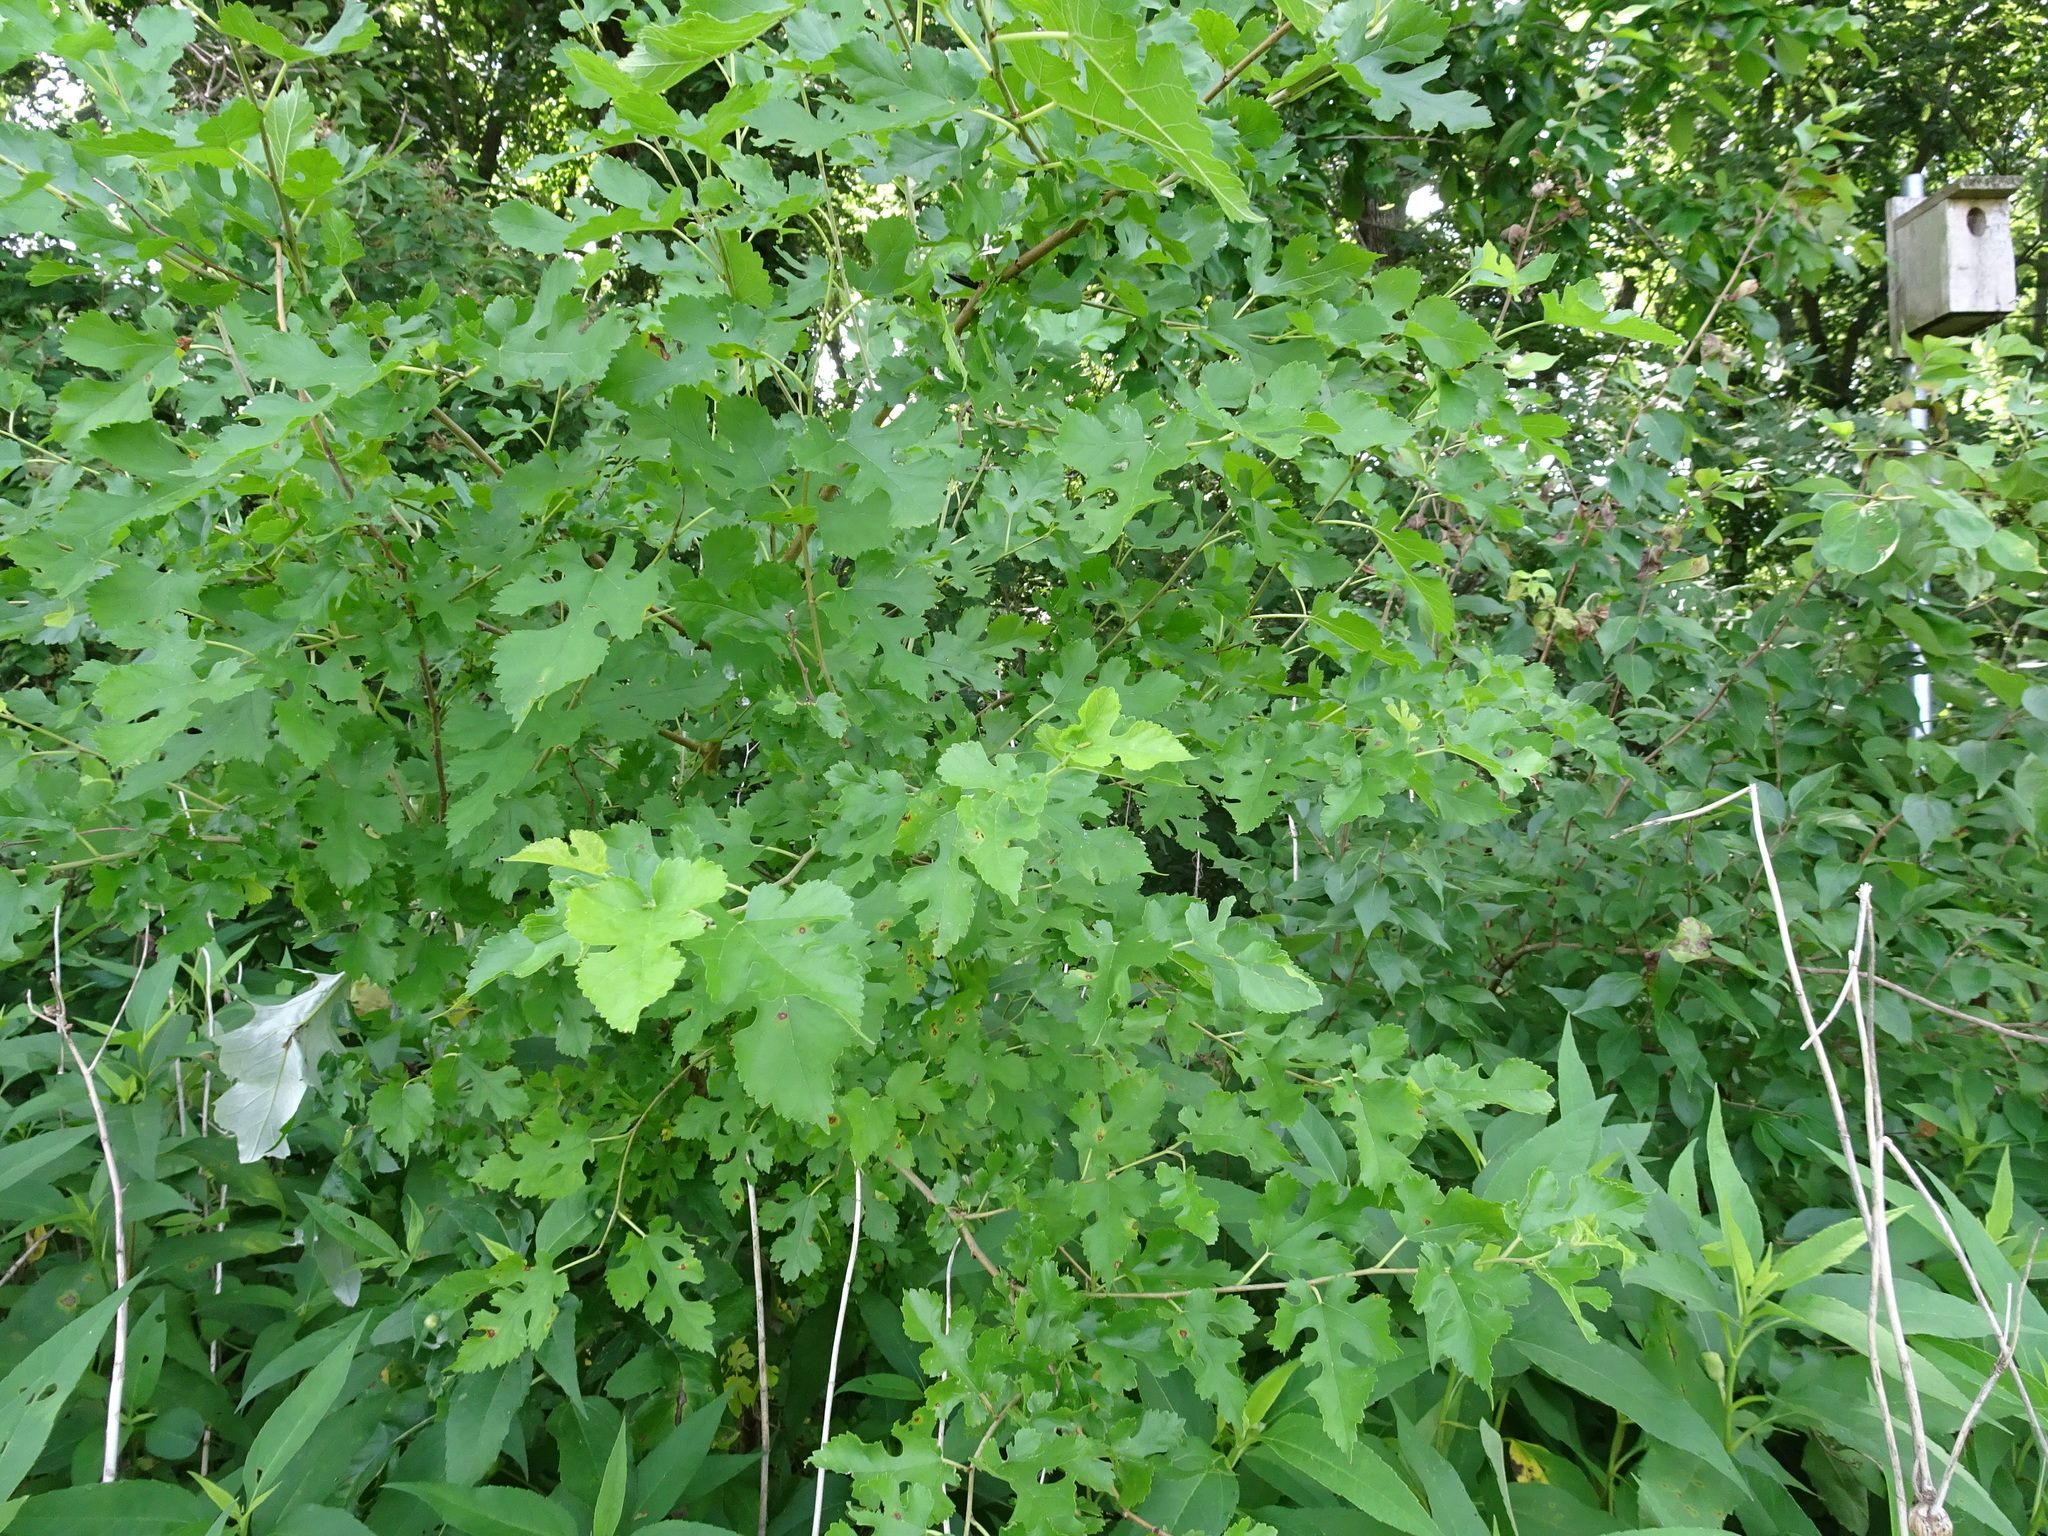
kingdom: Plantae
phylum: Tracheophyta
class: Magnoliopsida
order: Rosales
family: Moraceae
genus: Morus
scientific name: Morus alba
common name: White mulberry
